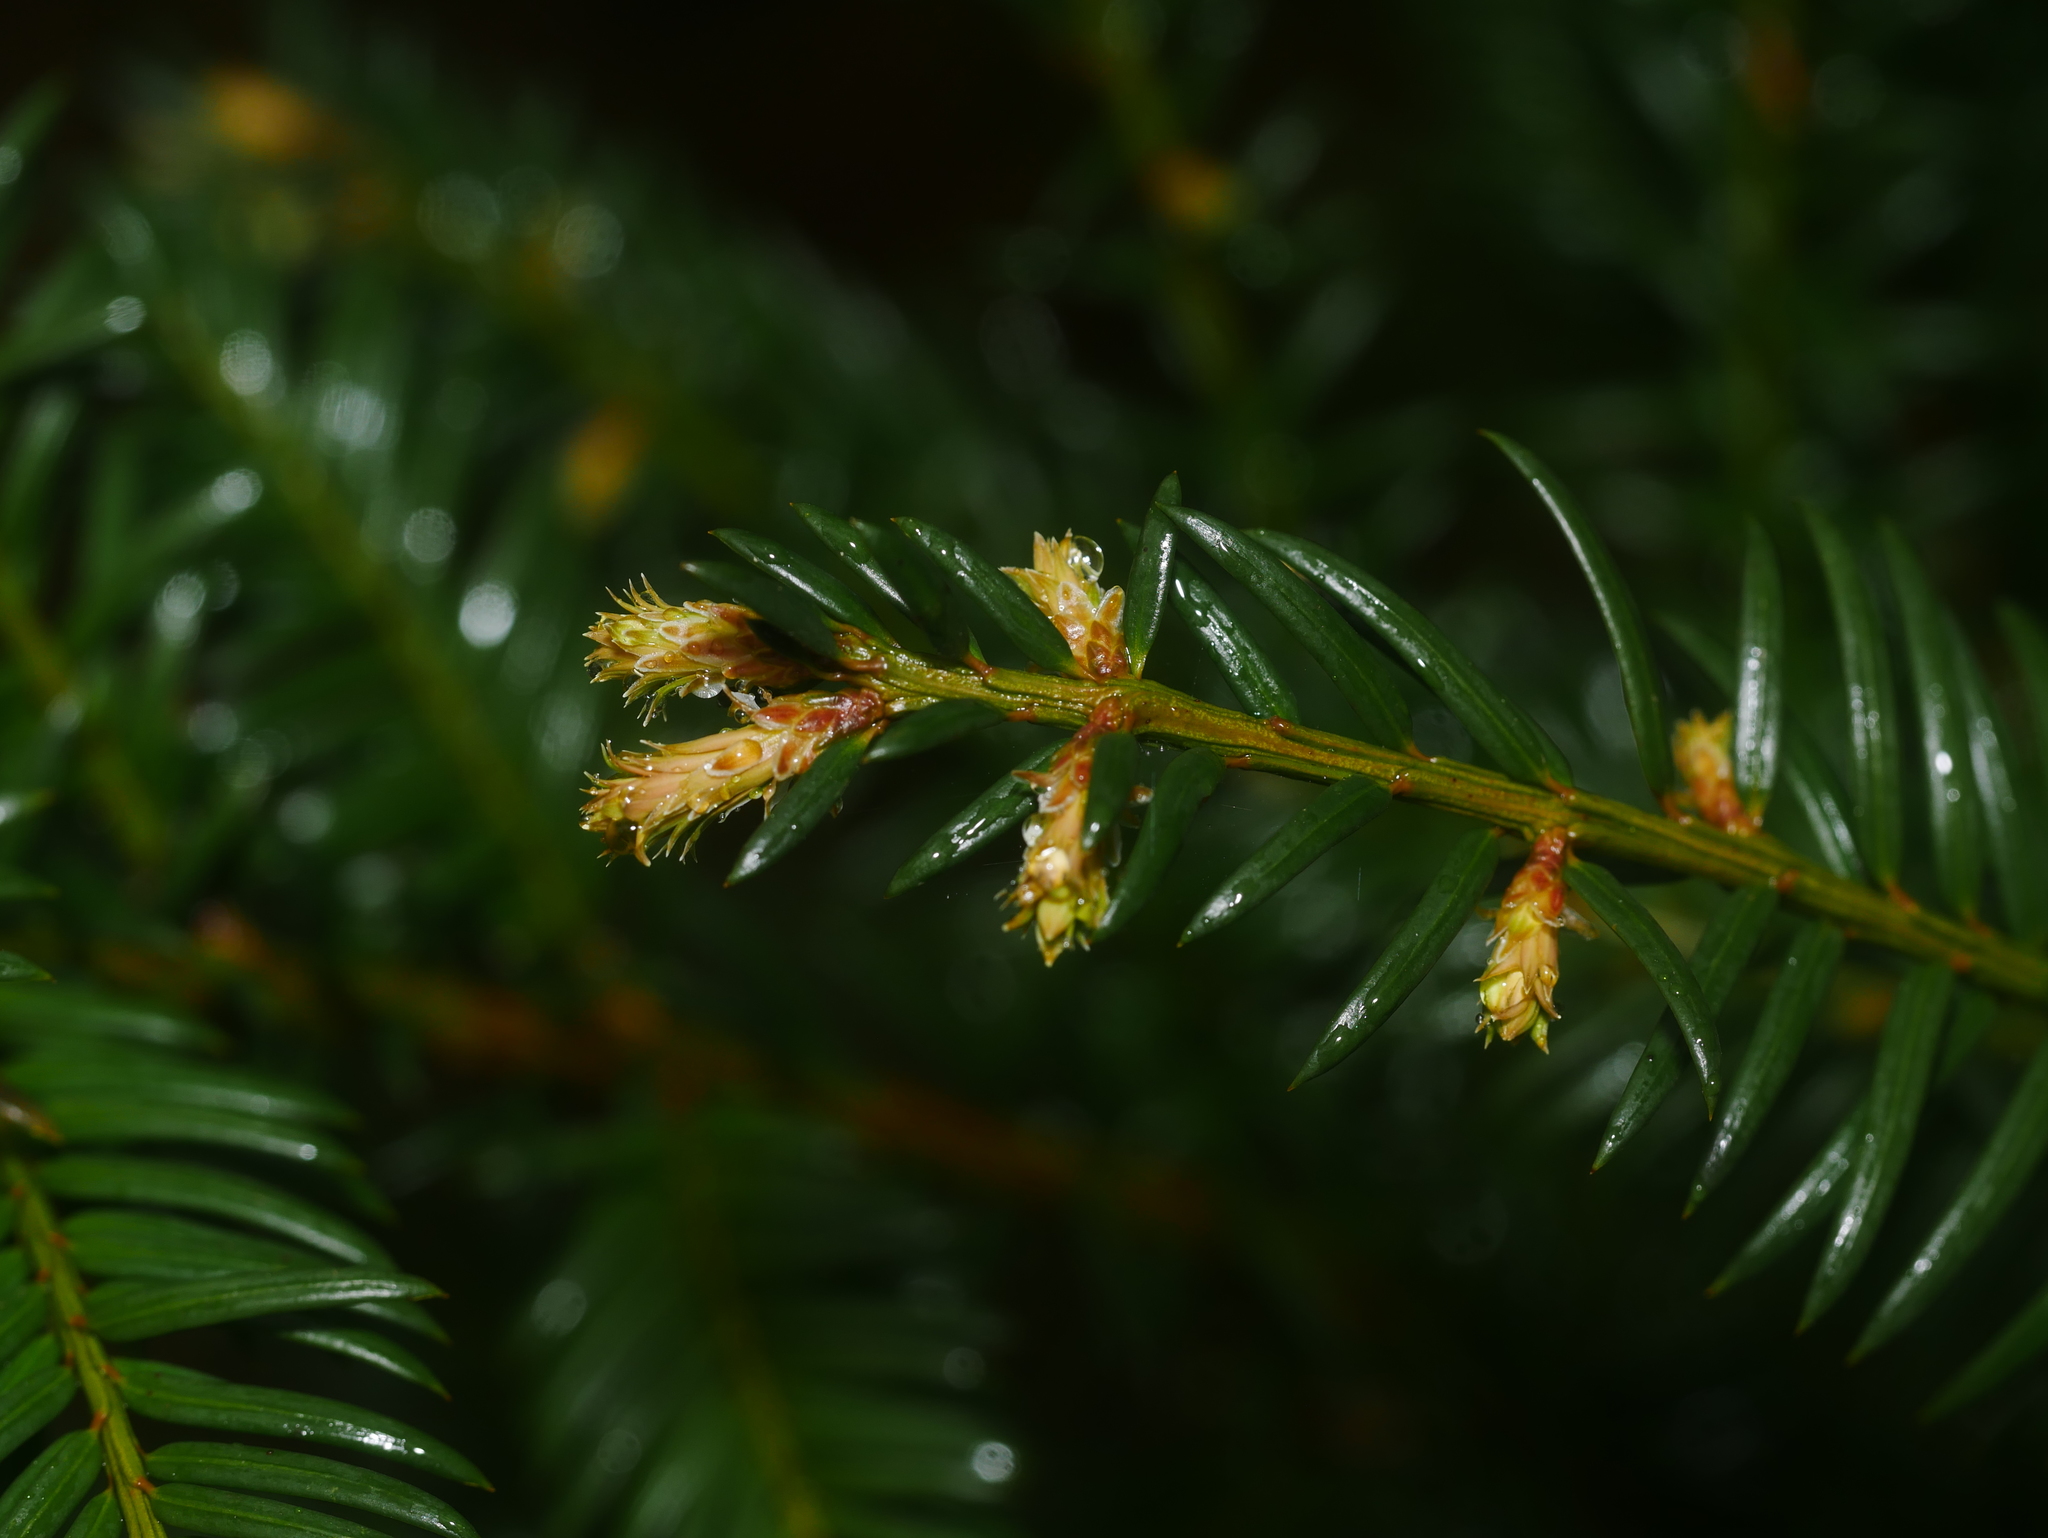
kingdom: Plantae
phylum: Tracheophyta
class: Pinopsida
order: Pinales
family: Taxaceae
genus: Taxus
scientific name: Taxus baccata
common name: Yew
